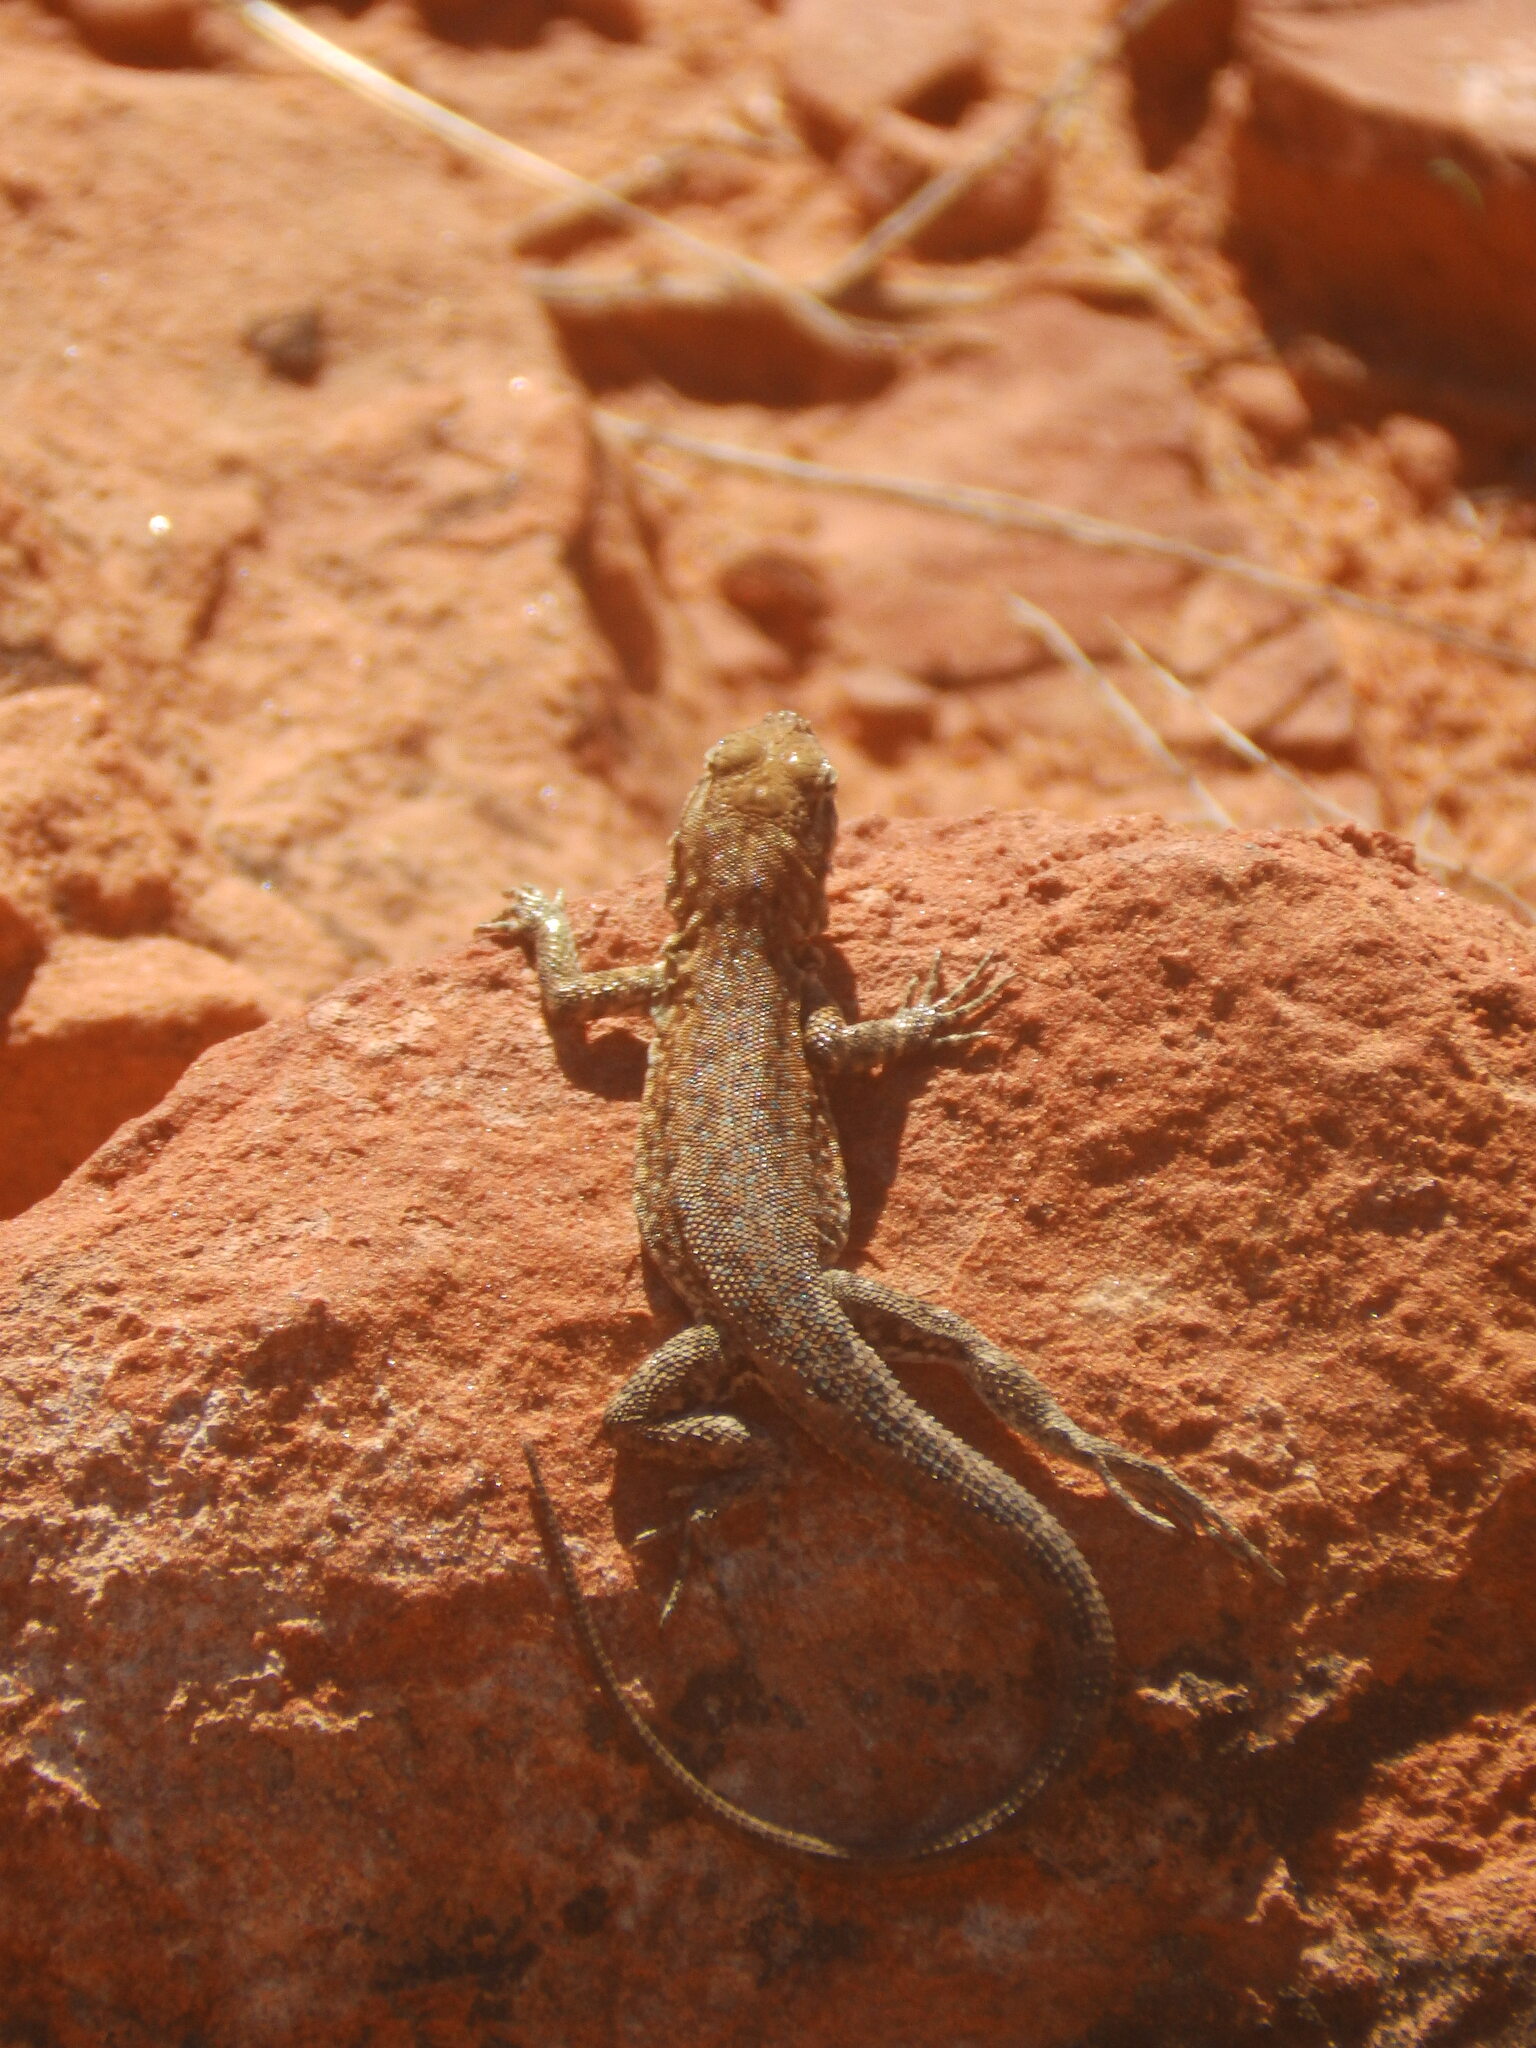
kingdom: Animalia
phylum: Chordata
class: Squamata
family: Phrynosomatidae
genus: Uta
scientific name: Uta stansburiana
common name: Side-blotched lizard
